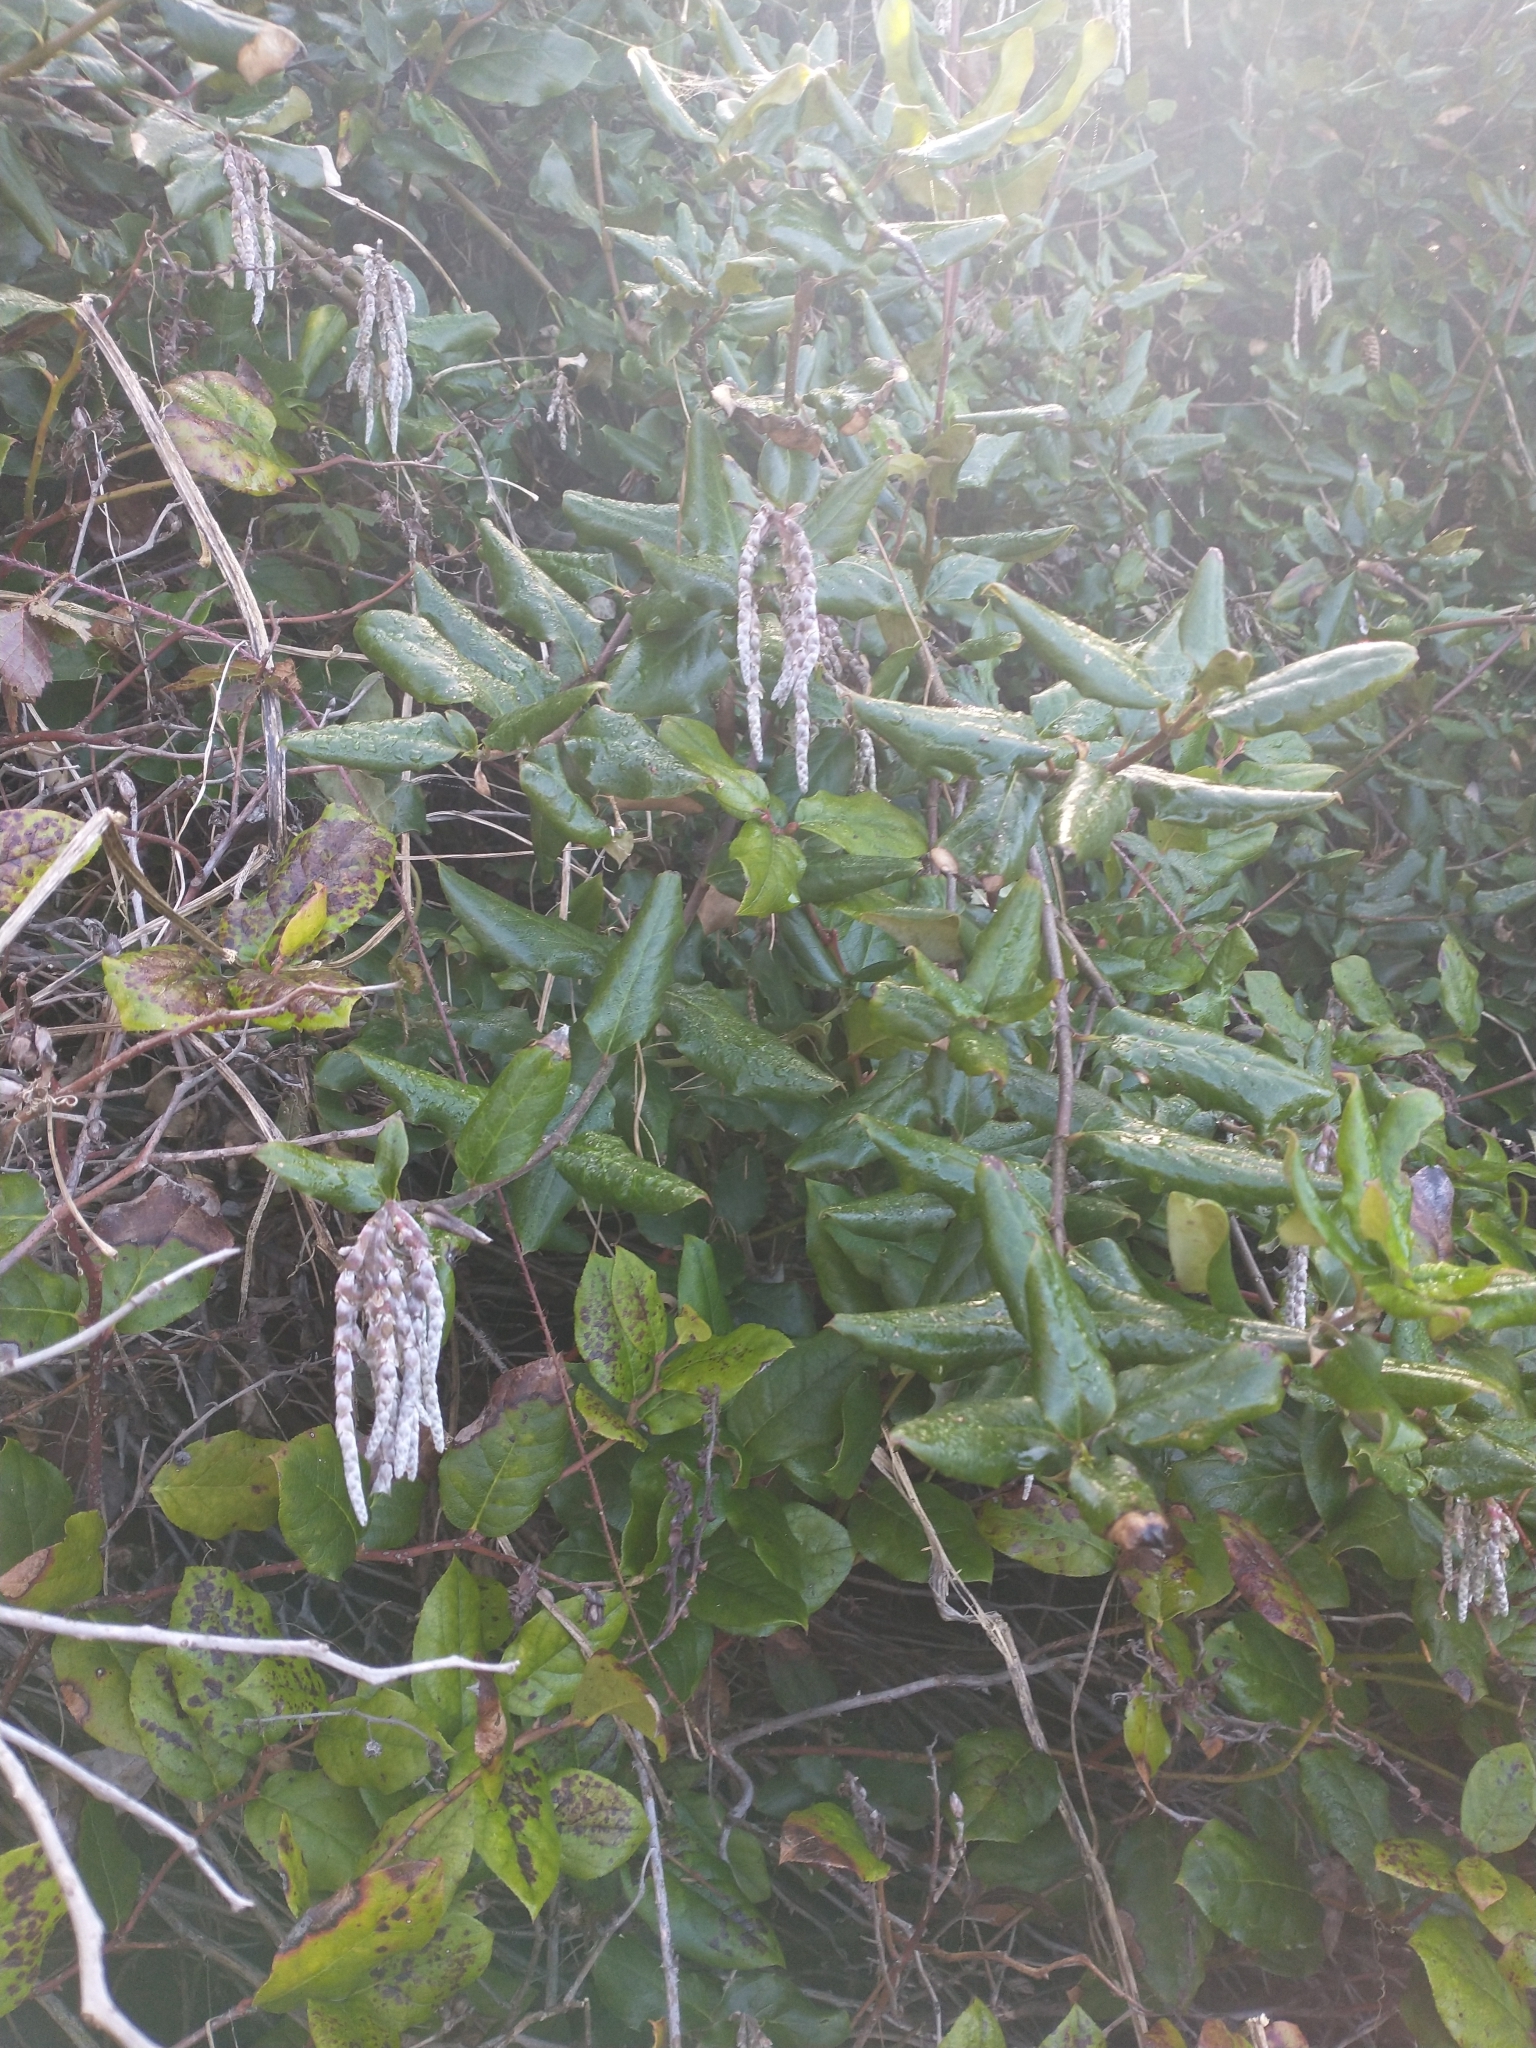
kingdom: Plantae
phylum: Tracheophyta
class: Magnoliopsida
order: Garryales
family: Garryaceae
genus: Garrya
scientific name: Garrya elliptica
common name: Silk-tassel
